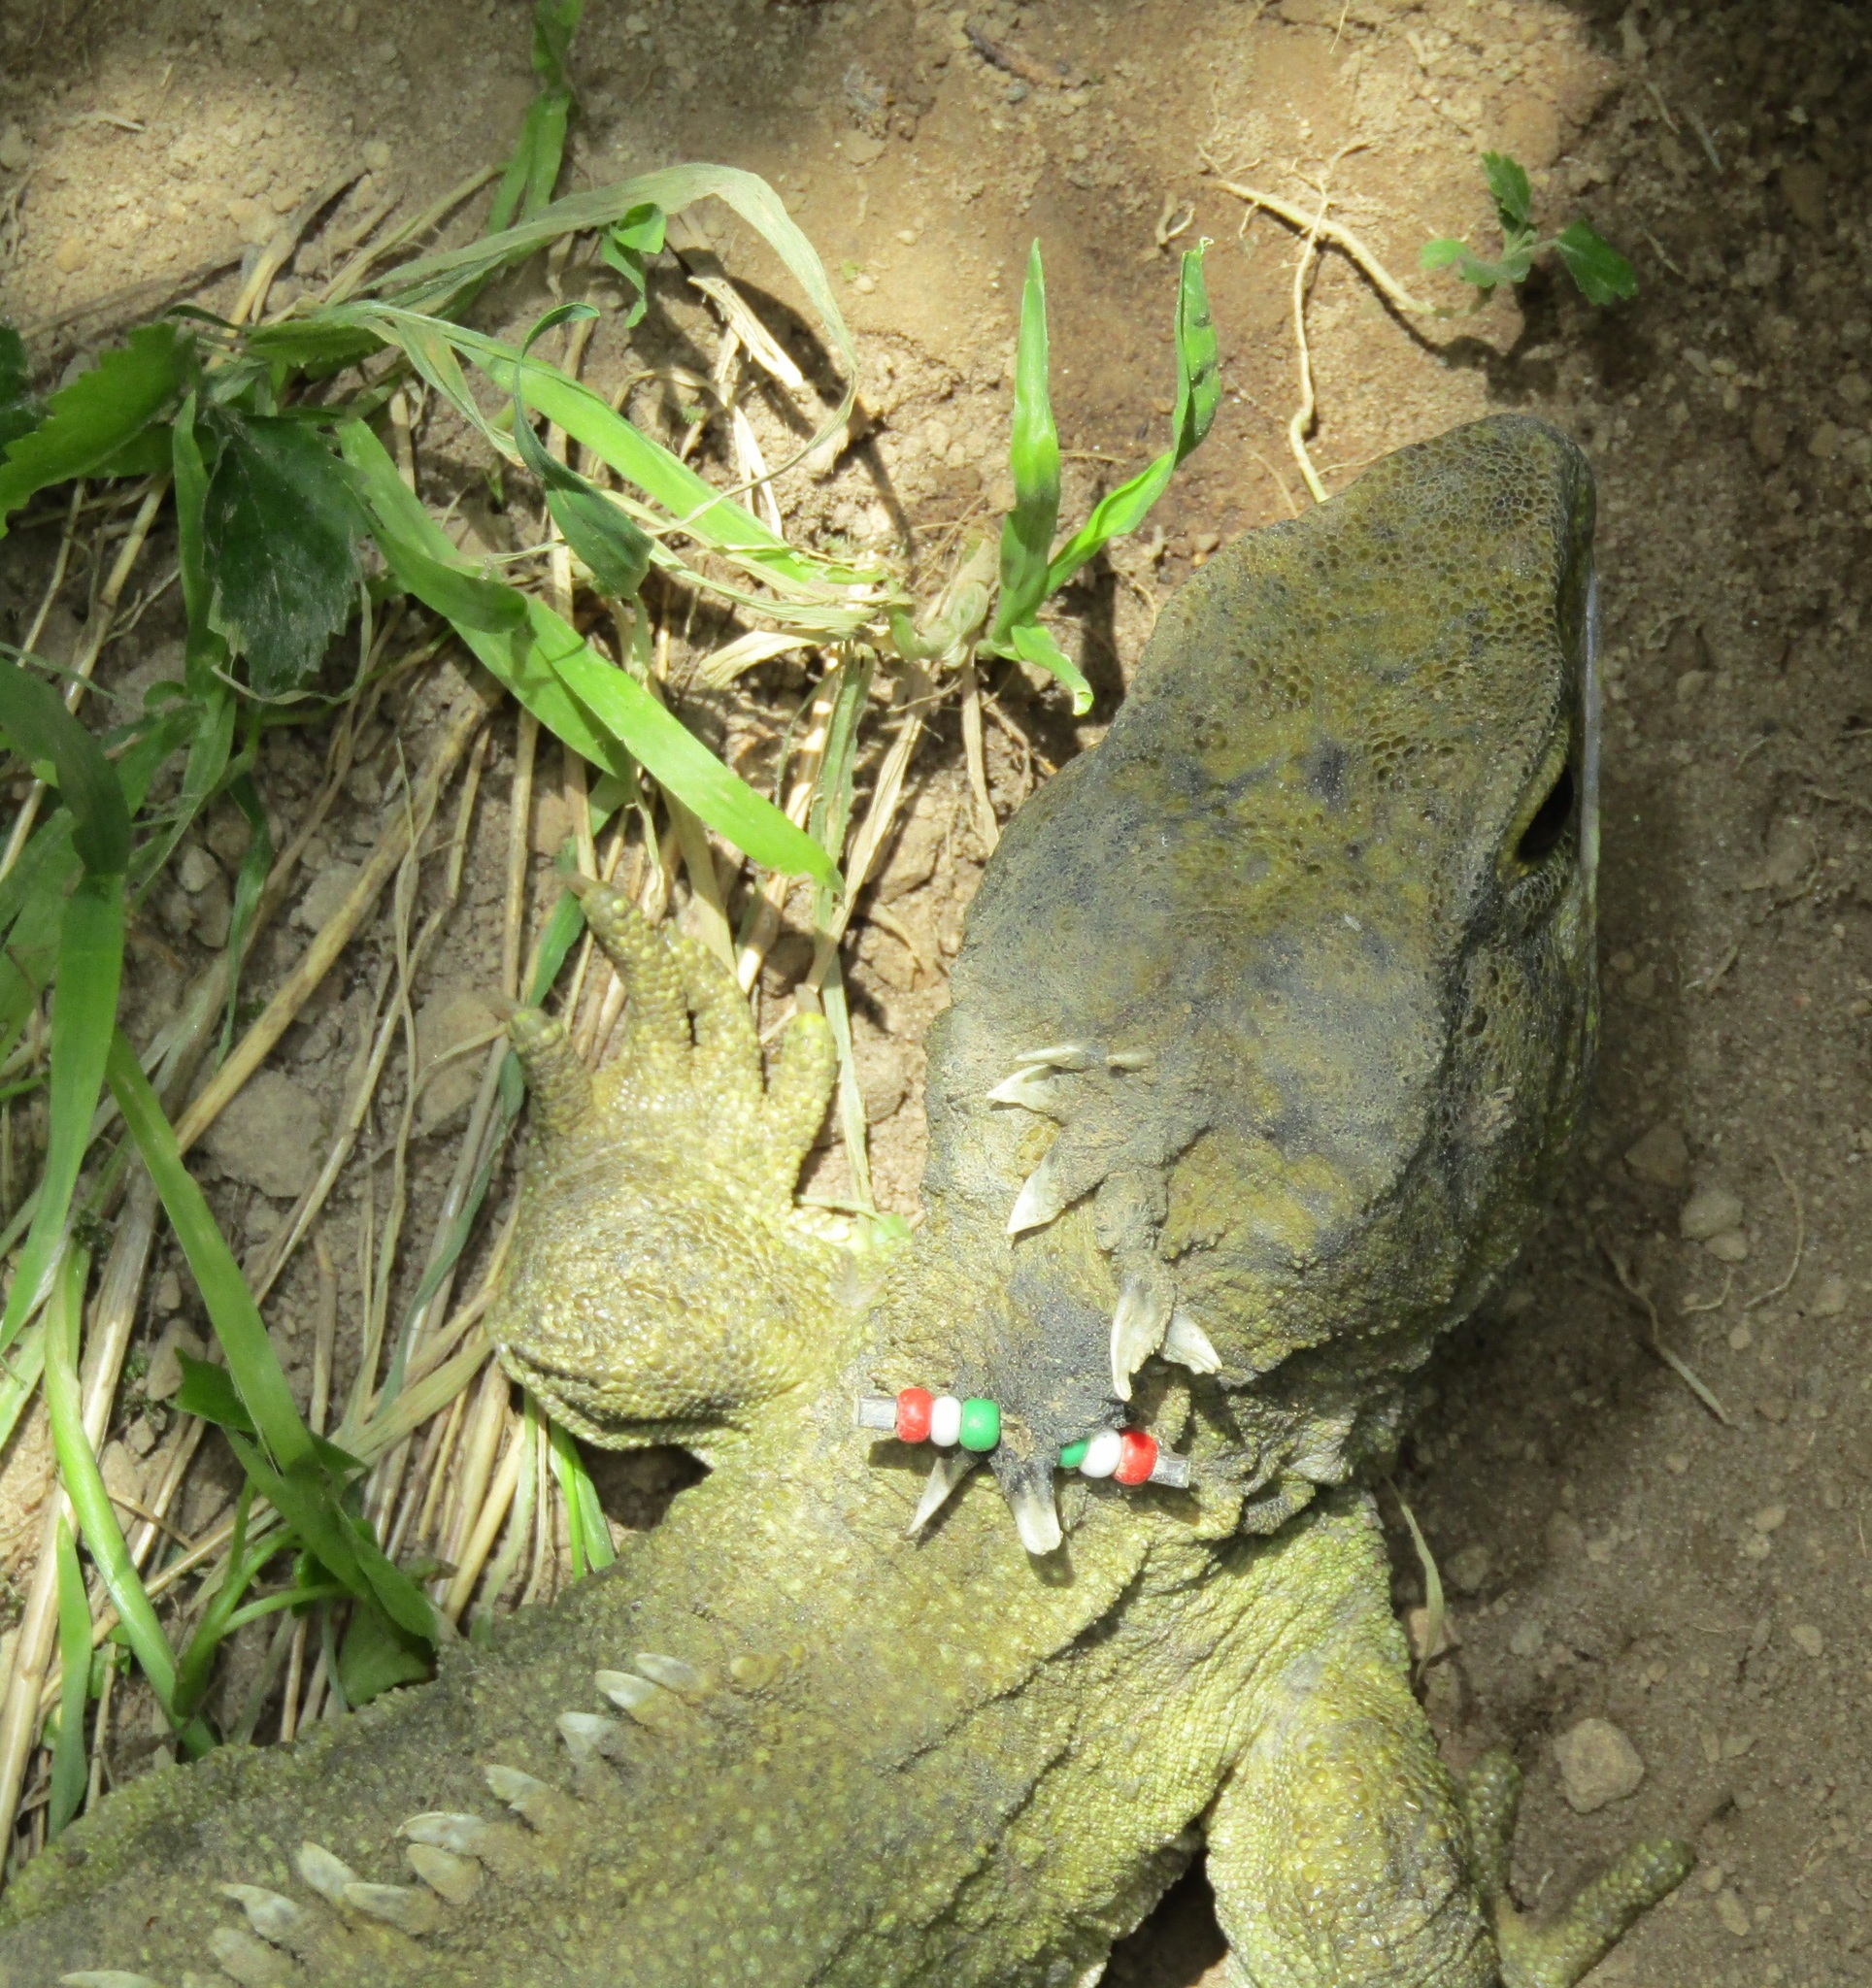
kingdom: Animalia
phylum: Chordata
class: Sphenodontia
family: Sphenodontidae
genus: Sphenodon
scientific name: Sphenodon punctatus
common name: Tuatara
